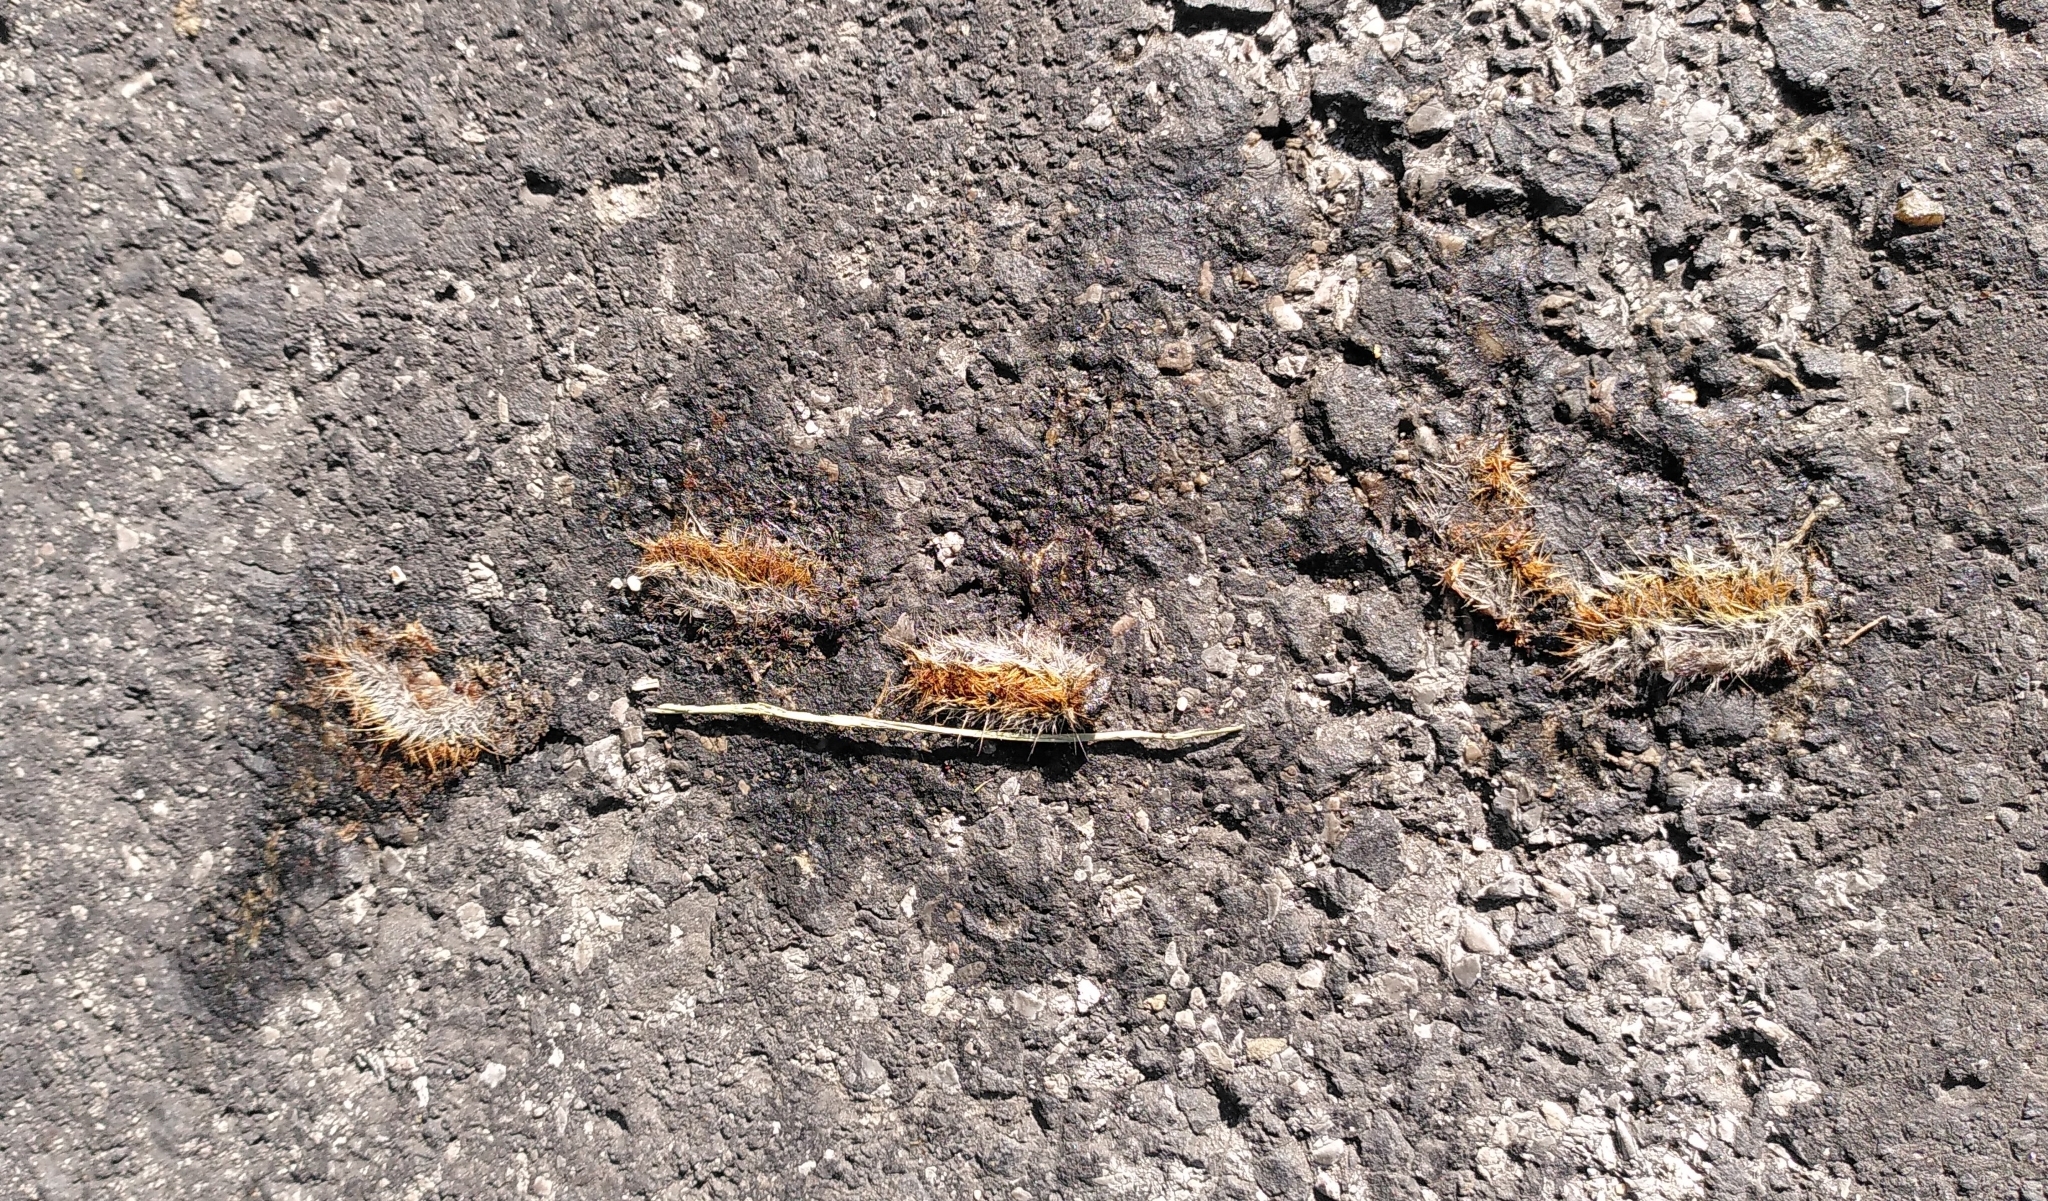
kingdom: Animalia
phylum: Arthropoda
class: Insecta
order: Lepidoptera
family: Notodontidae
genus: Thaumetopoea
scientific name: Thaumetopoea pityocampa
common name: Pine processionary
